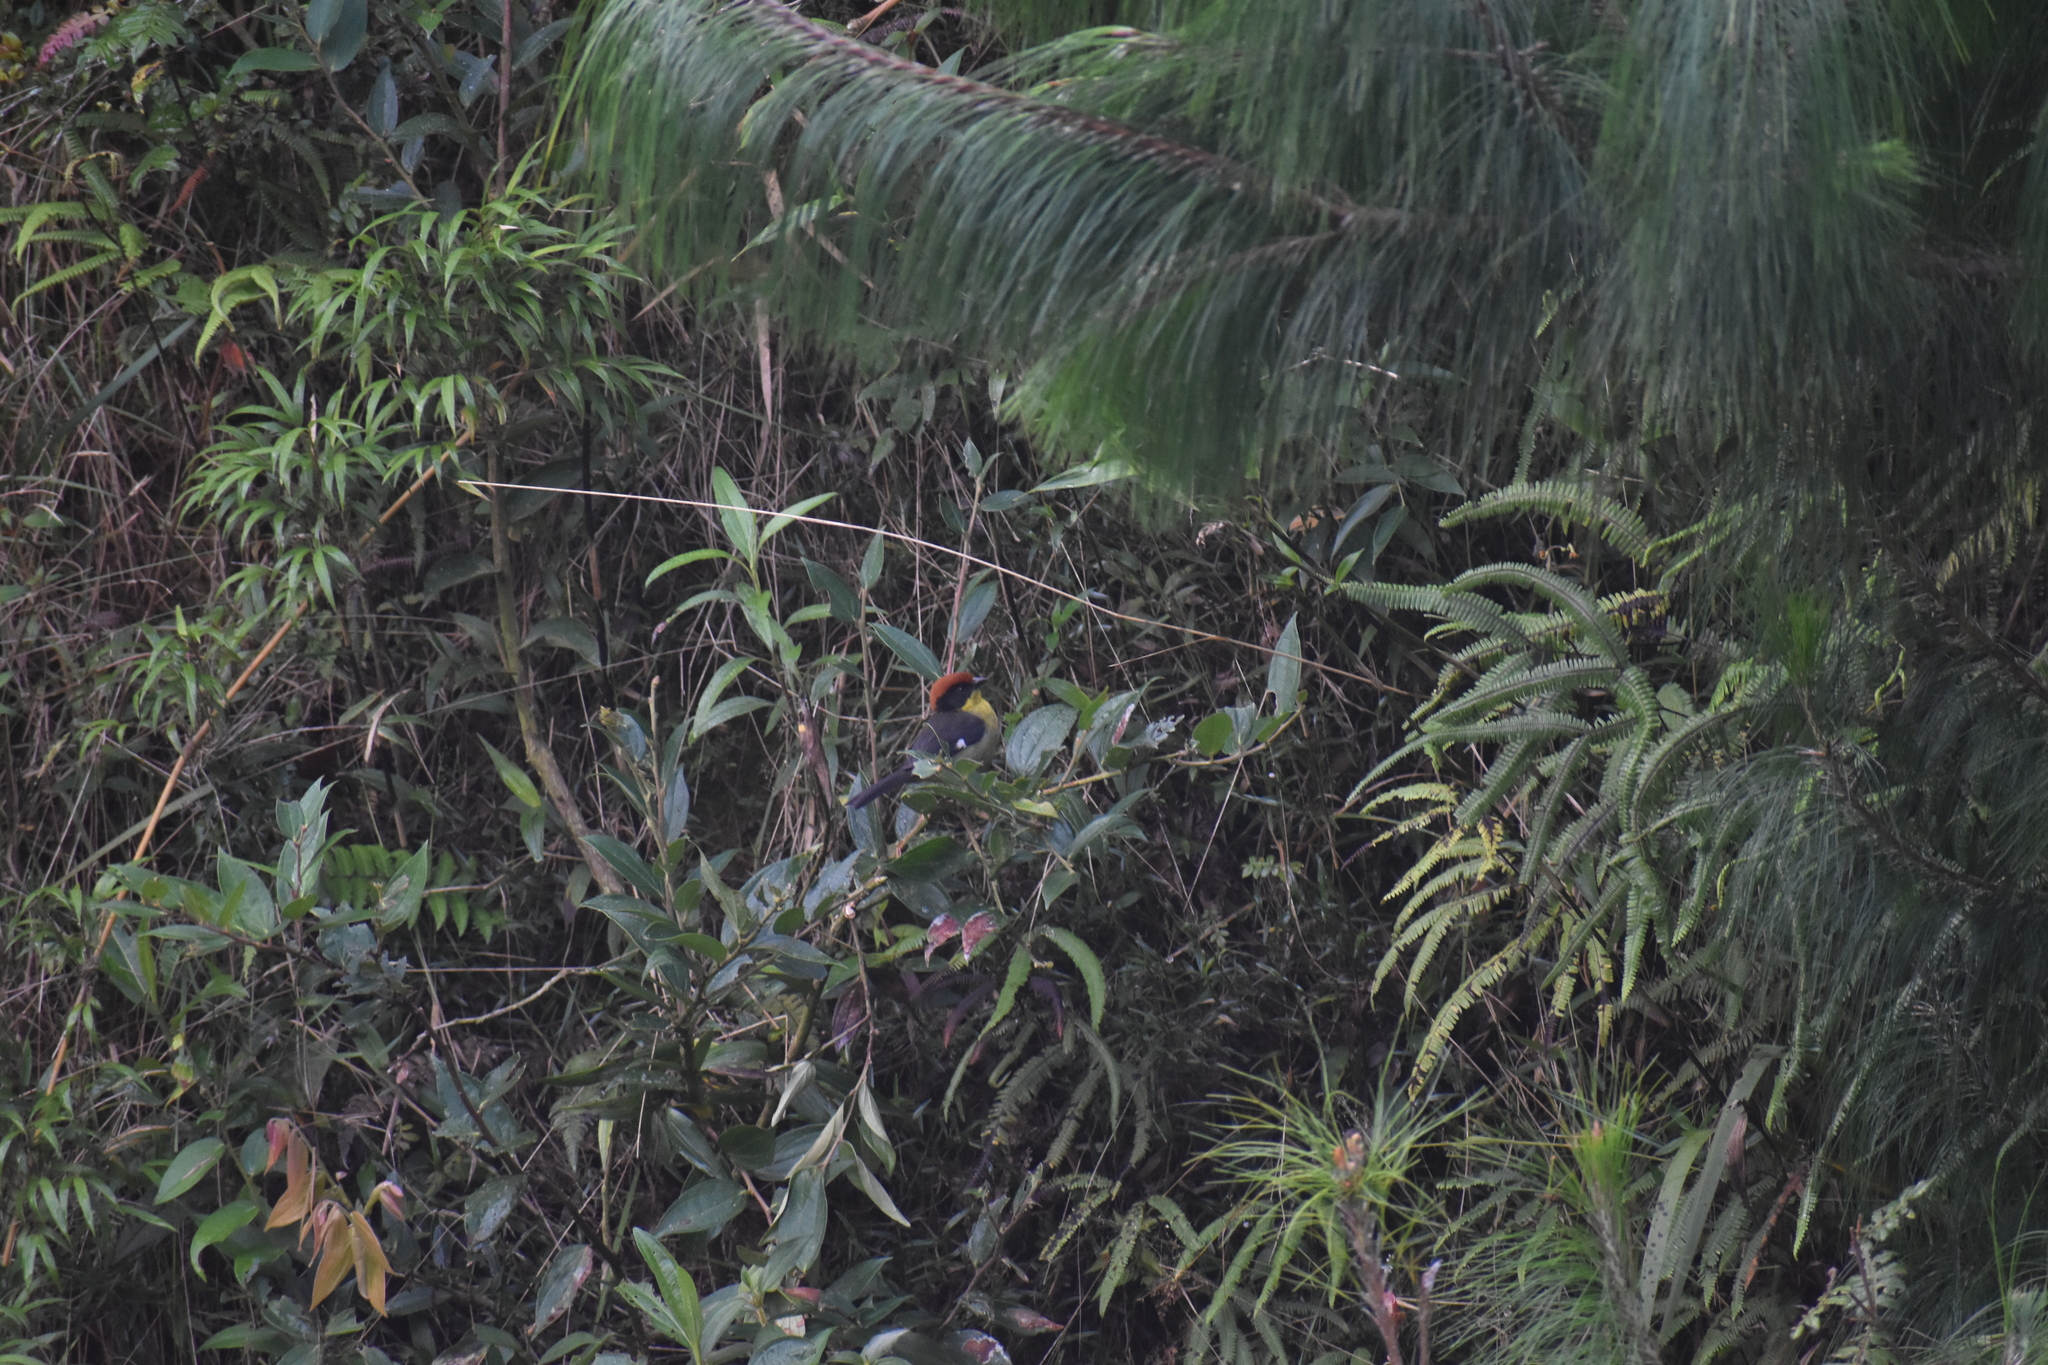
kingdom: Animalia
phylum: Chordata
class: Aves
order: Passeriformes
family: Passerellidae
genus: Atlapetes
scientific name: Atlapetes latinuchus
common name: Yellow-breasted brushfinch
